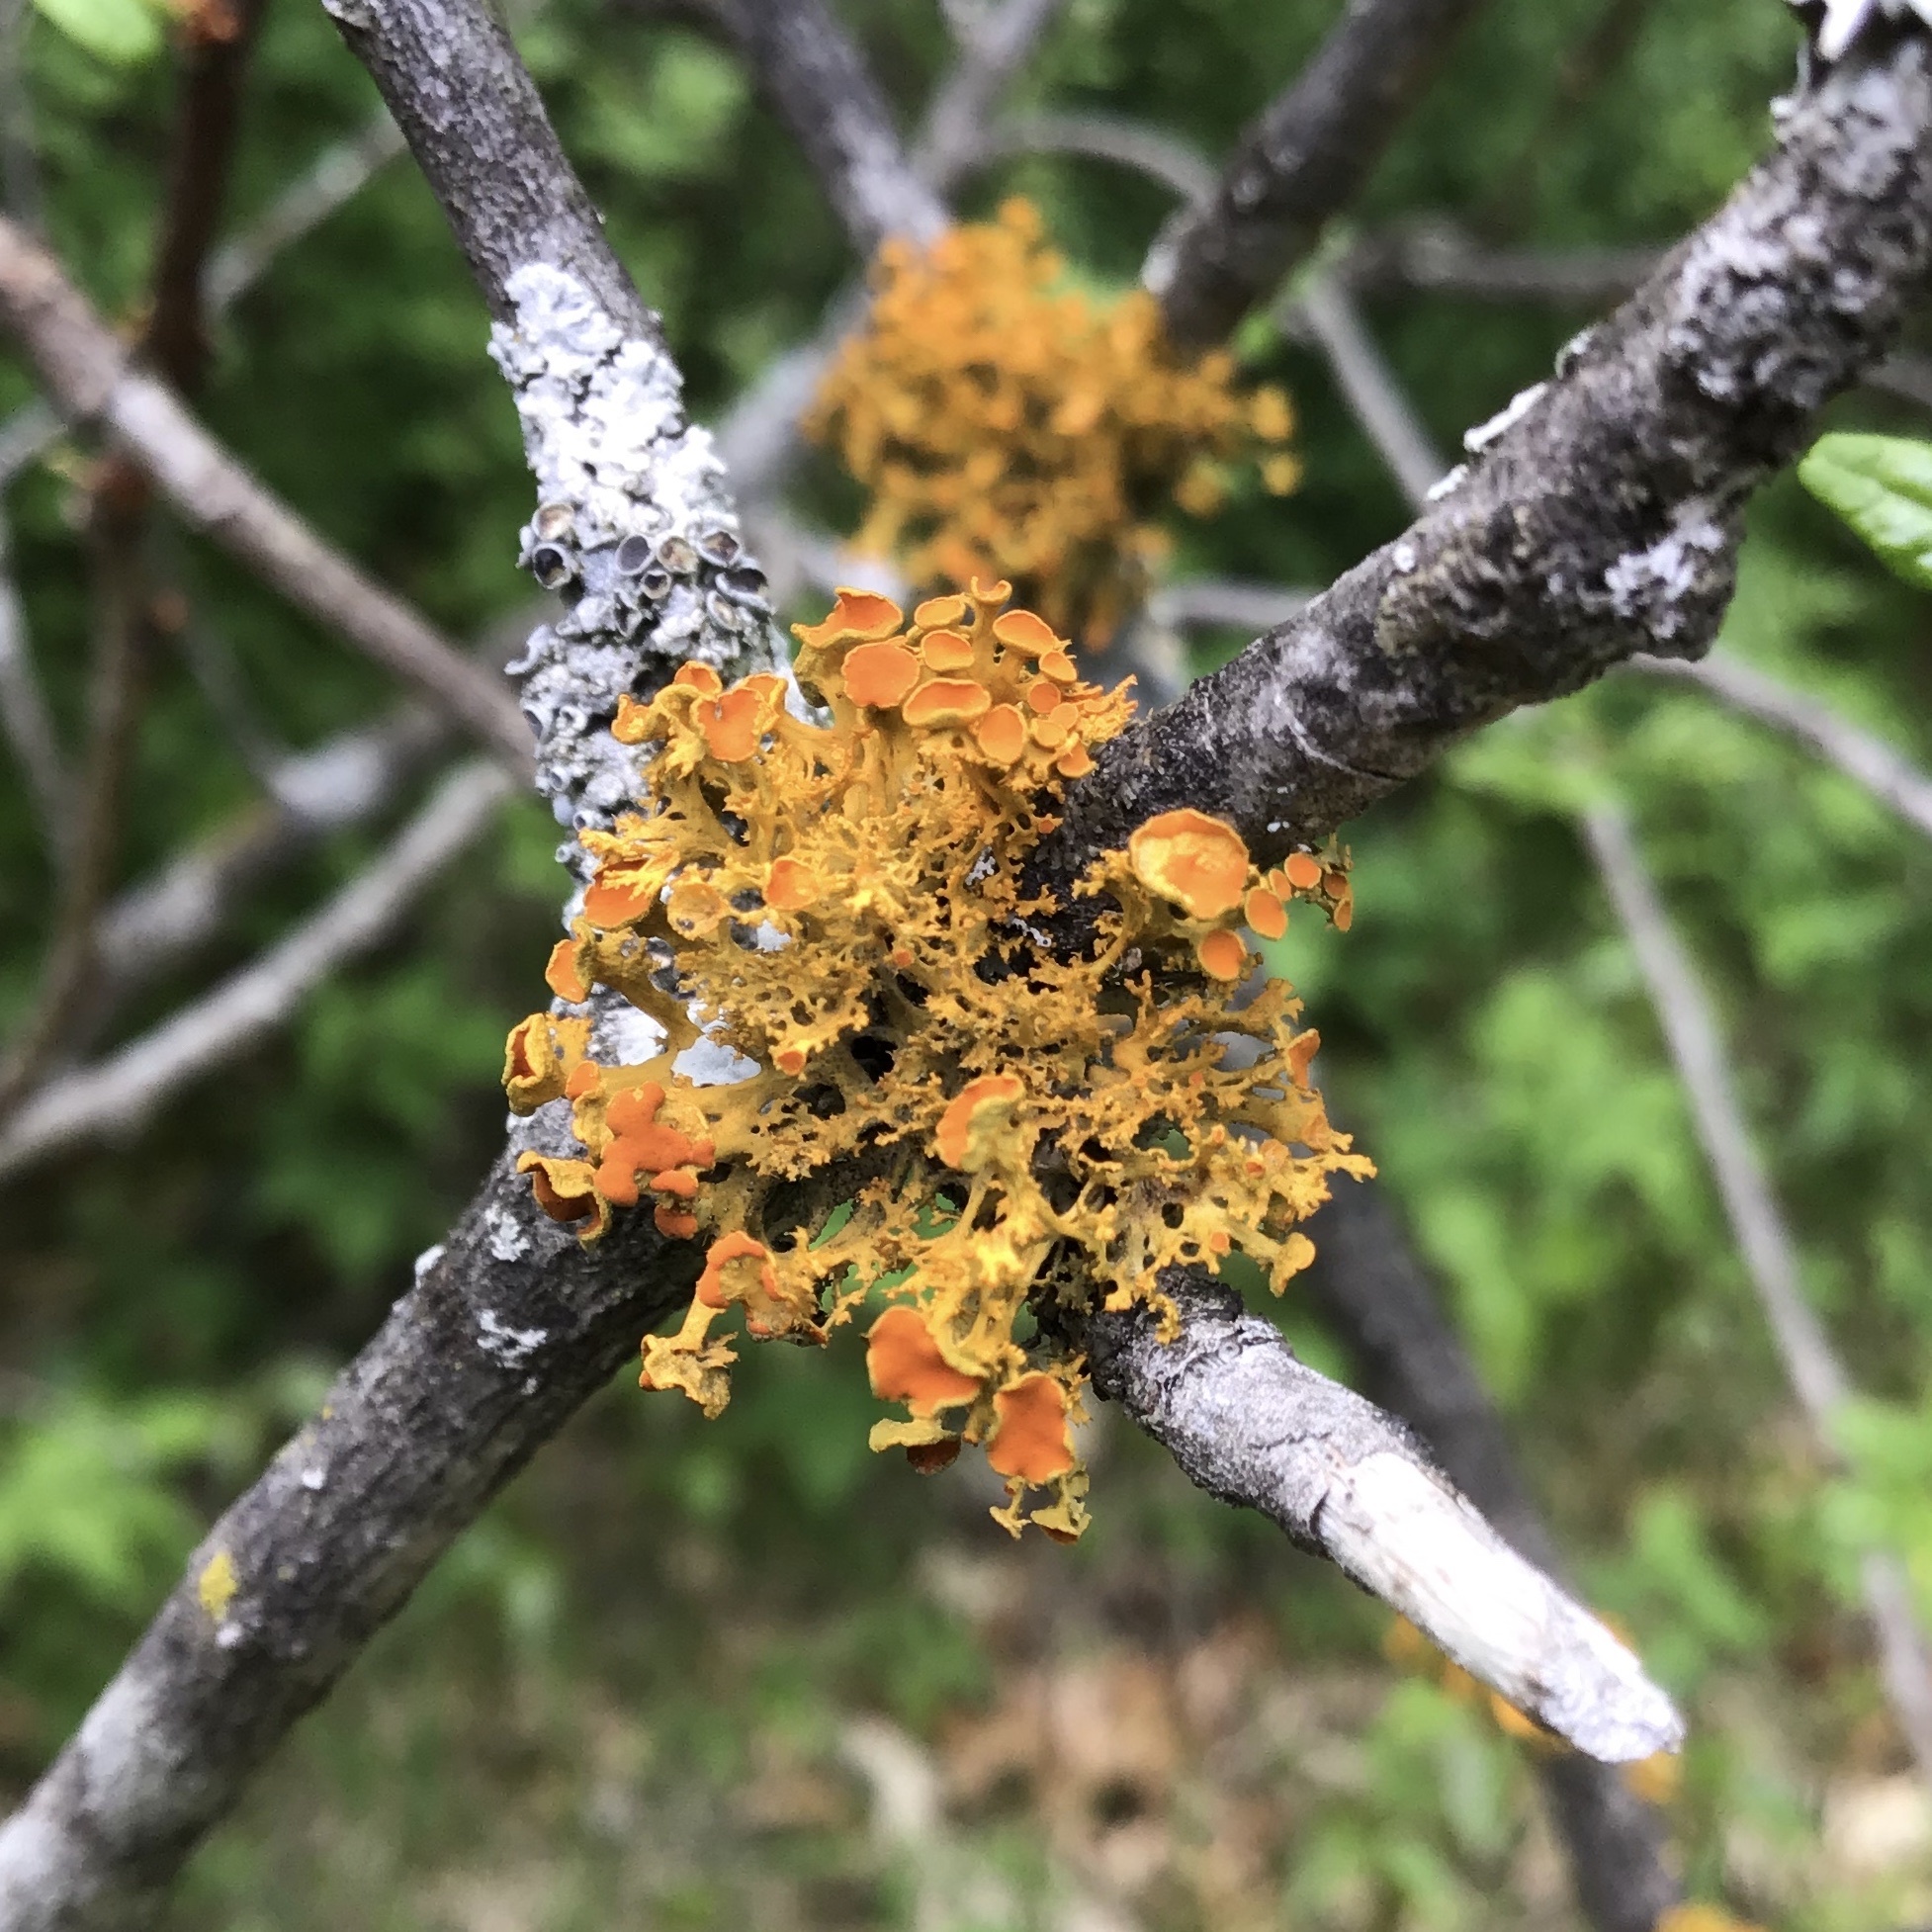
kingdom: Fungi
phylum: Ascomycota
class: Lecanoromycetes
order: Teloschistales
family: Teloschistaceae
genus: Niorma
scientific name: Niorma chrysophthalma
